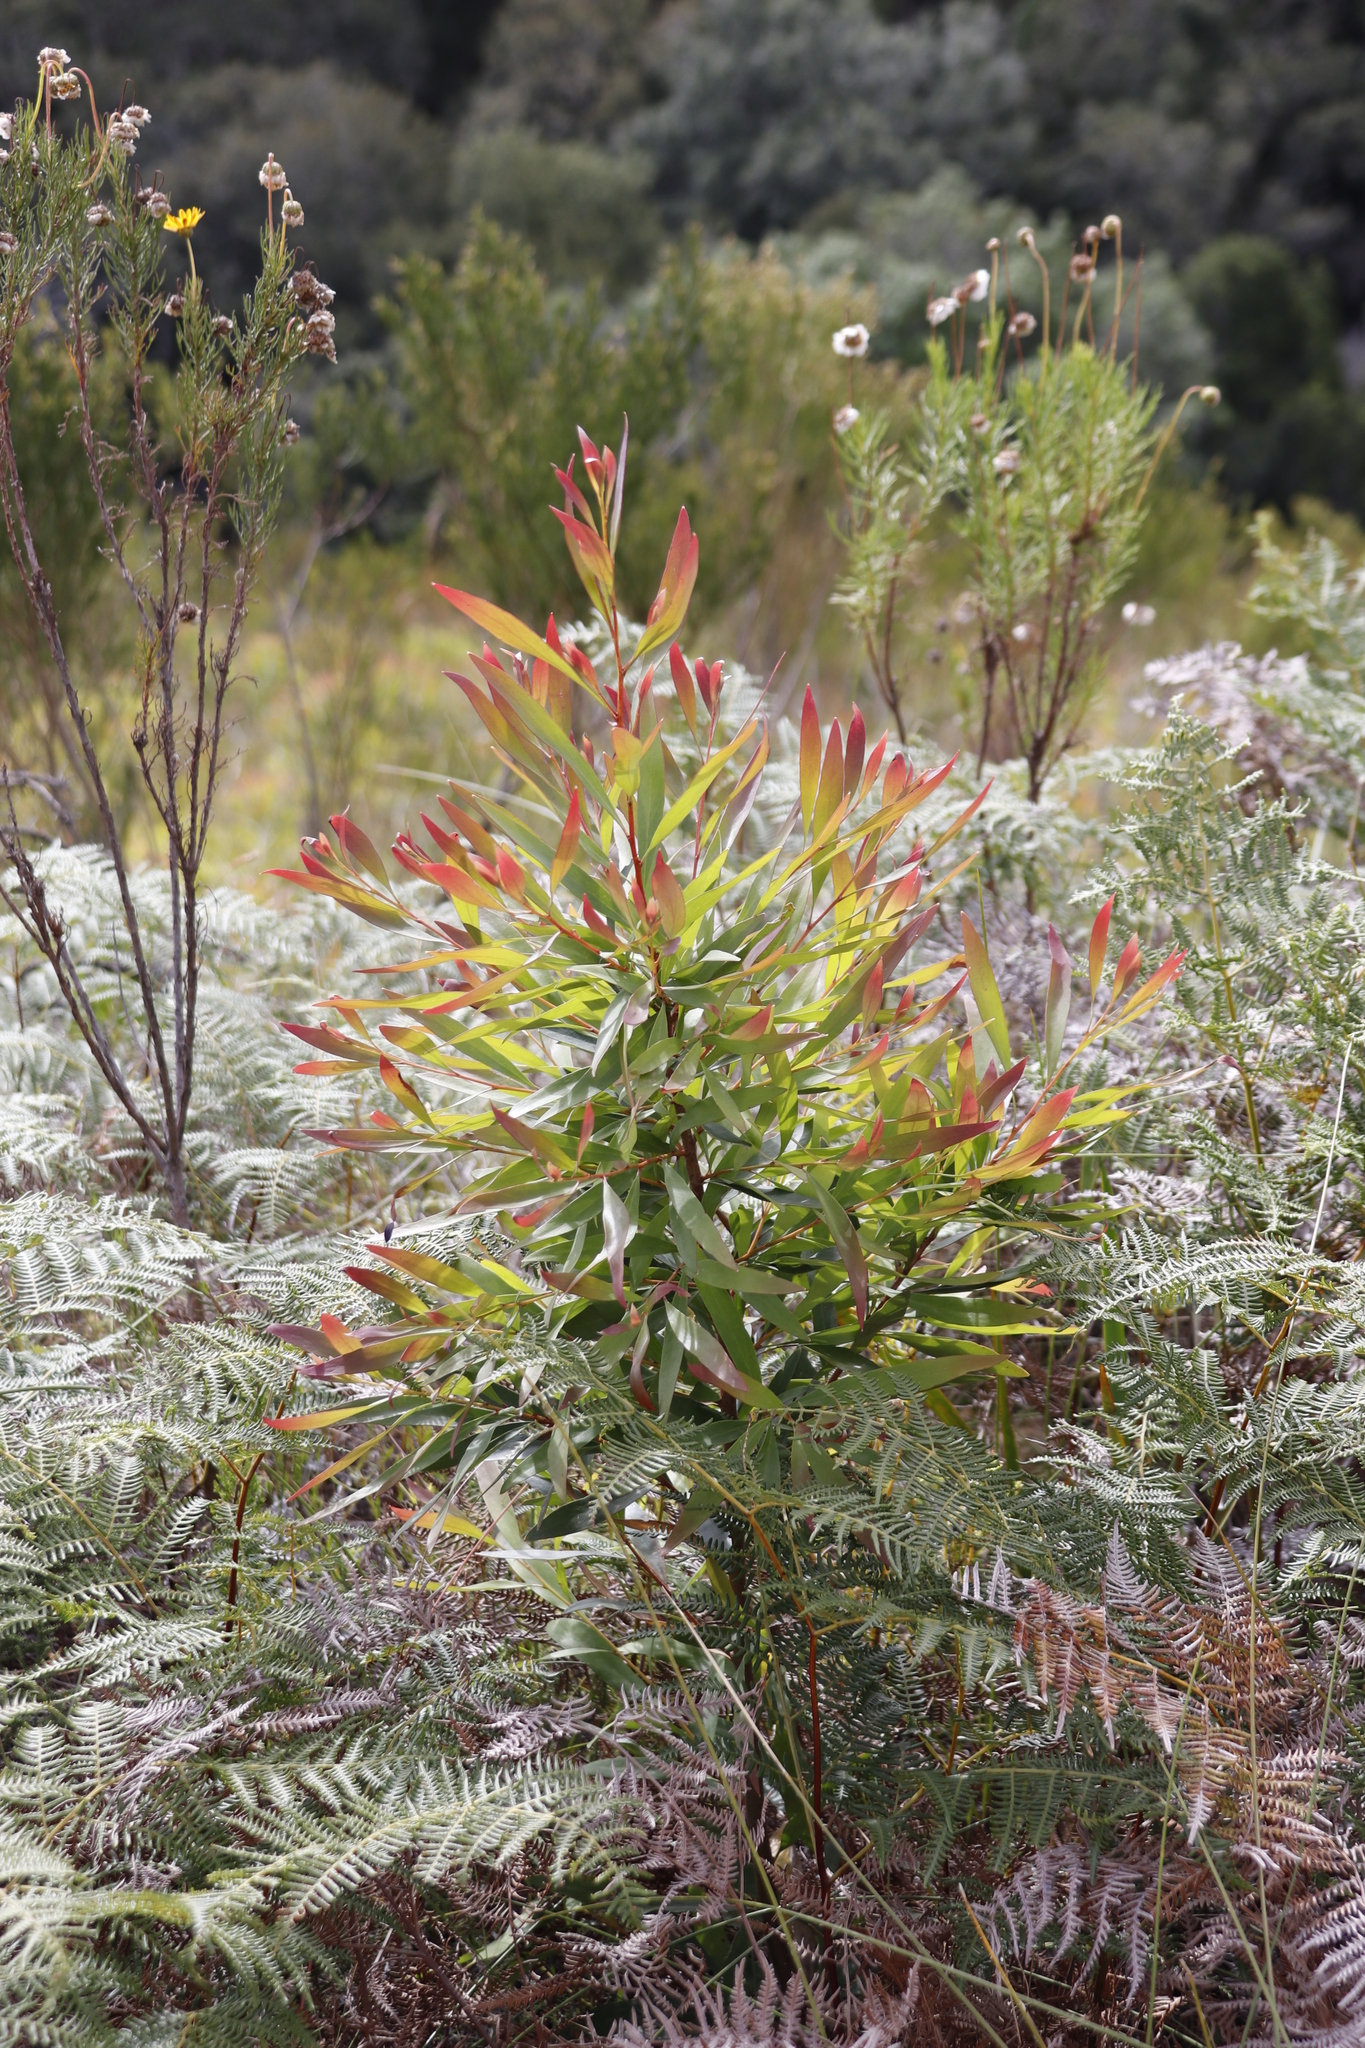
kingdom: Plantae
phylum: Tracheophyta
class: Magnoliopsida
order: Proteales
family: Proteaceae
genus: Hakea
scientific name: Hakea salicifolia
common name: Willow hakea
